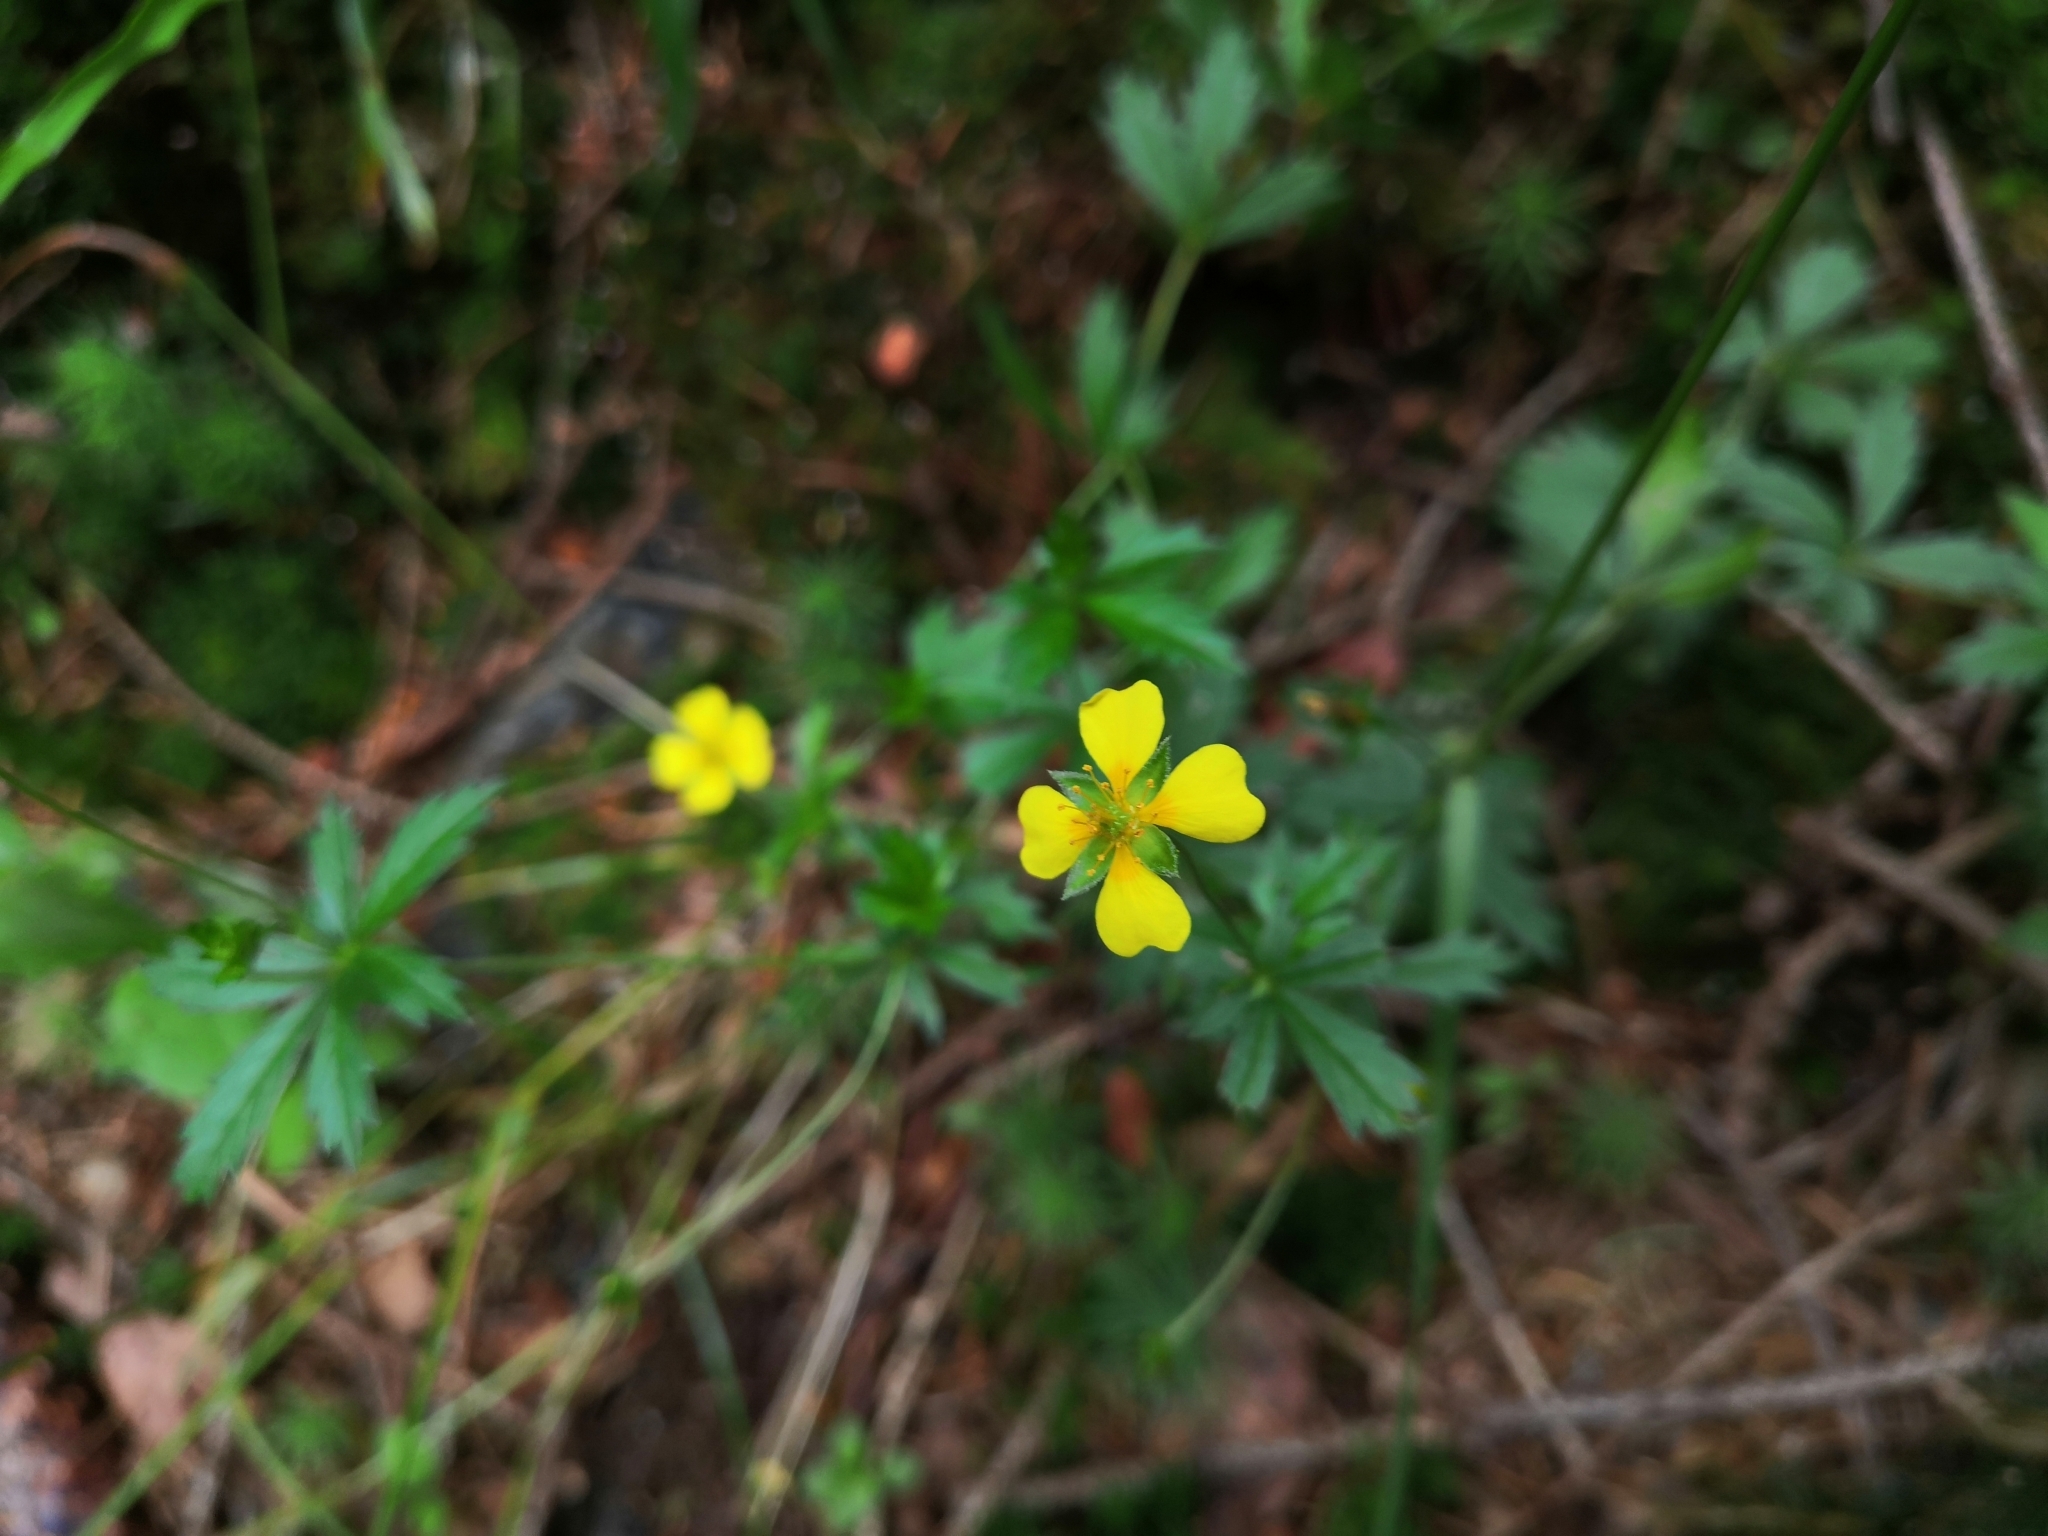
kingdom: Plantae
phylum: Tracheophyta
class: Magnoliopsida
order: Rosales
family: Rosaceae
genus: Potentilla
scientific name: Potentilla erecta
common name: Tormentil
